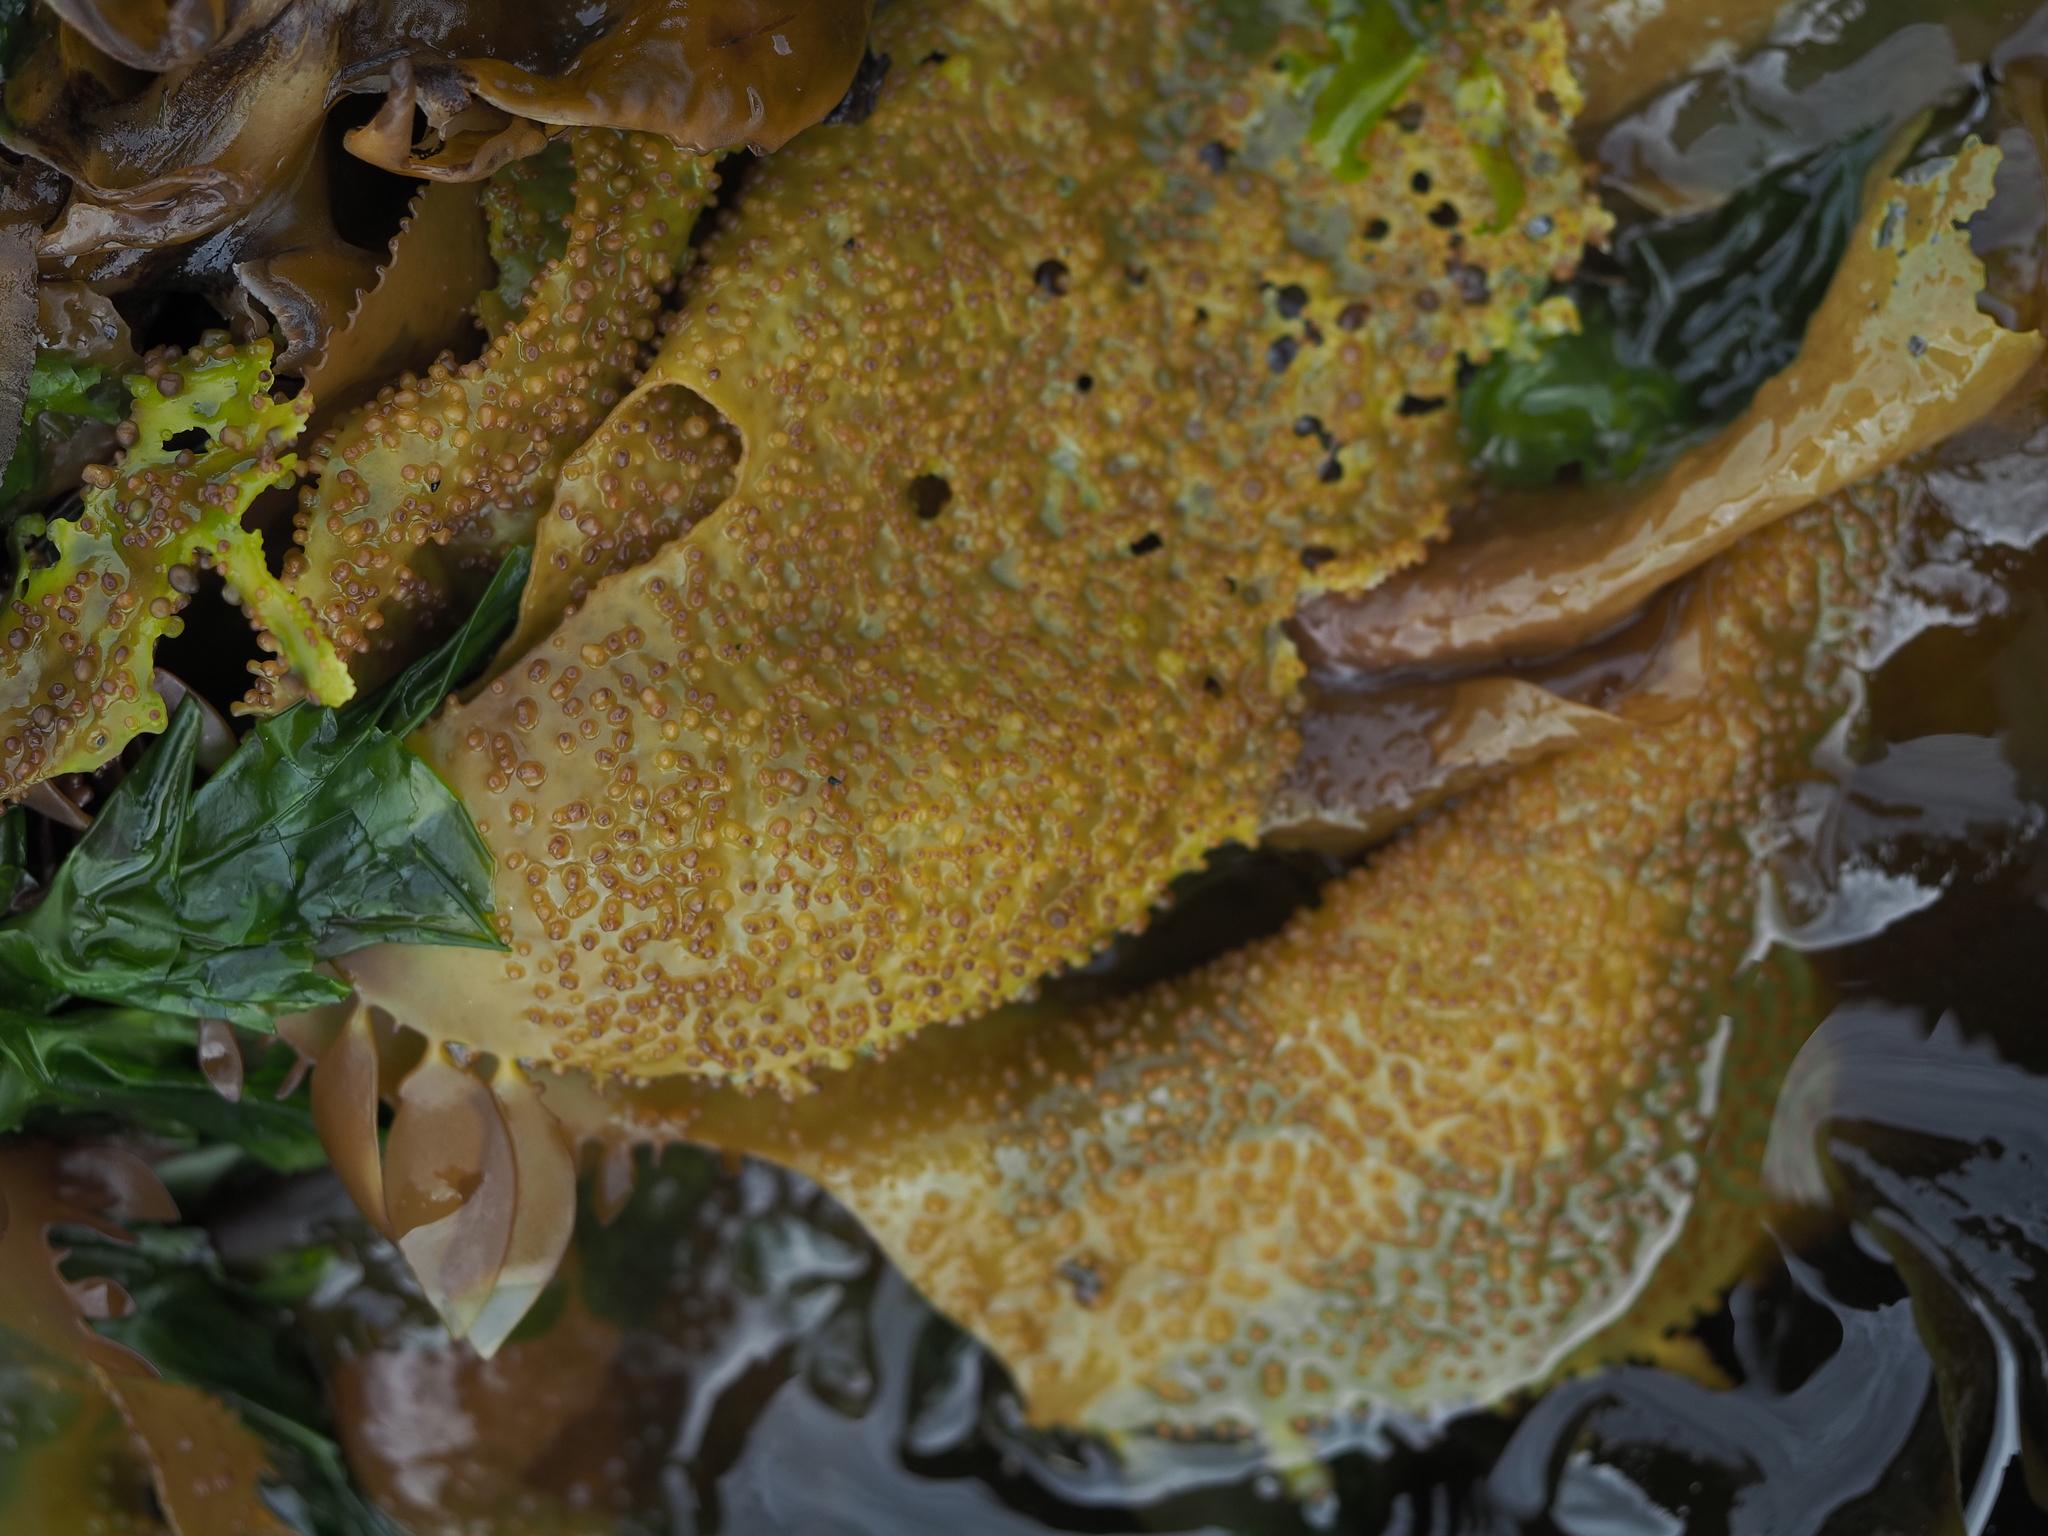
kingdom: Plantae
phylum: Rhodophyta
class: Florideophyceae
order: Gigartinales
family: Gigartinaceae
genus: Sarcothalia
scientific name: Sarcothalia circumcincta
